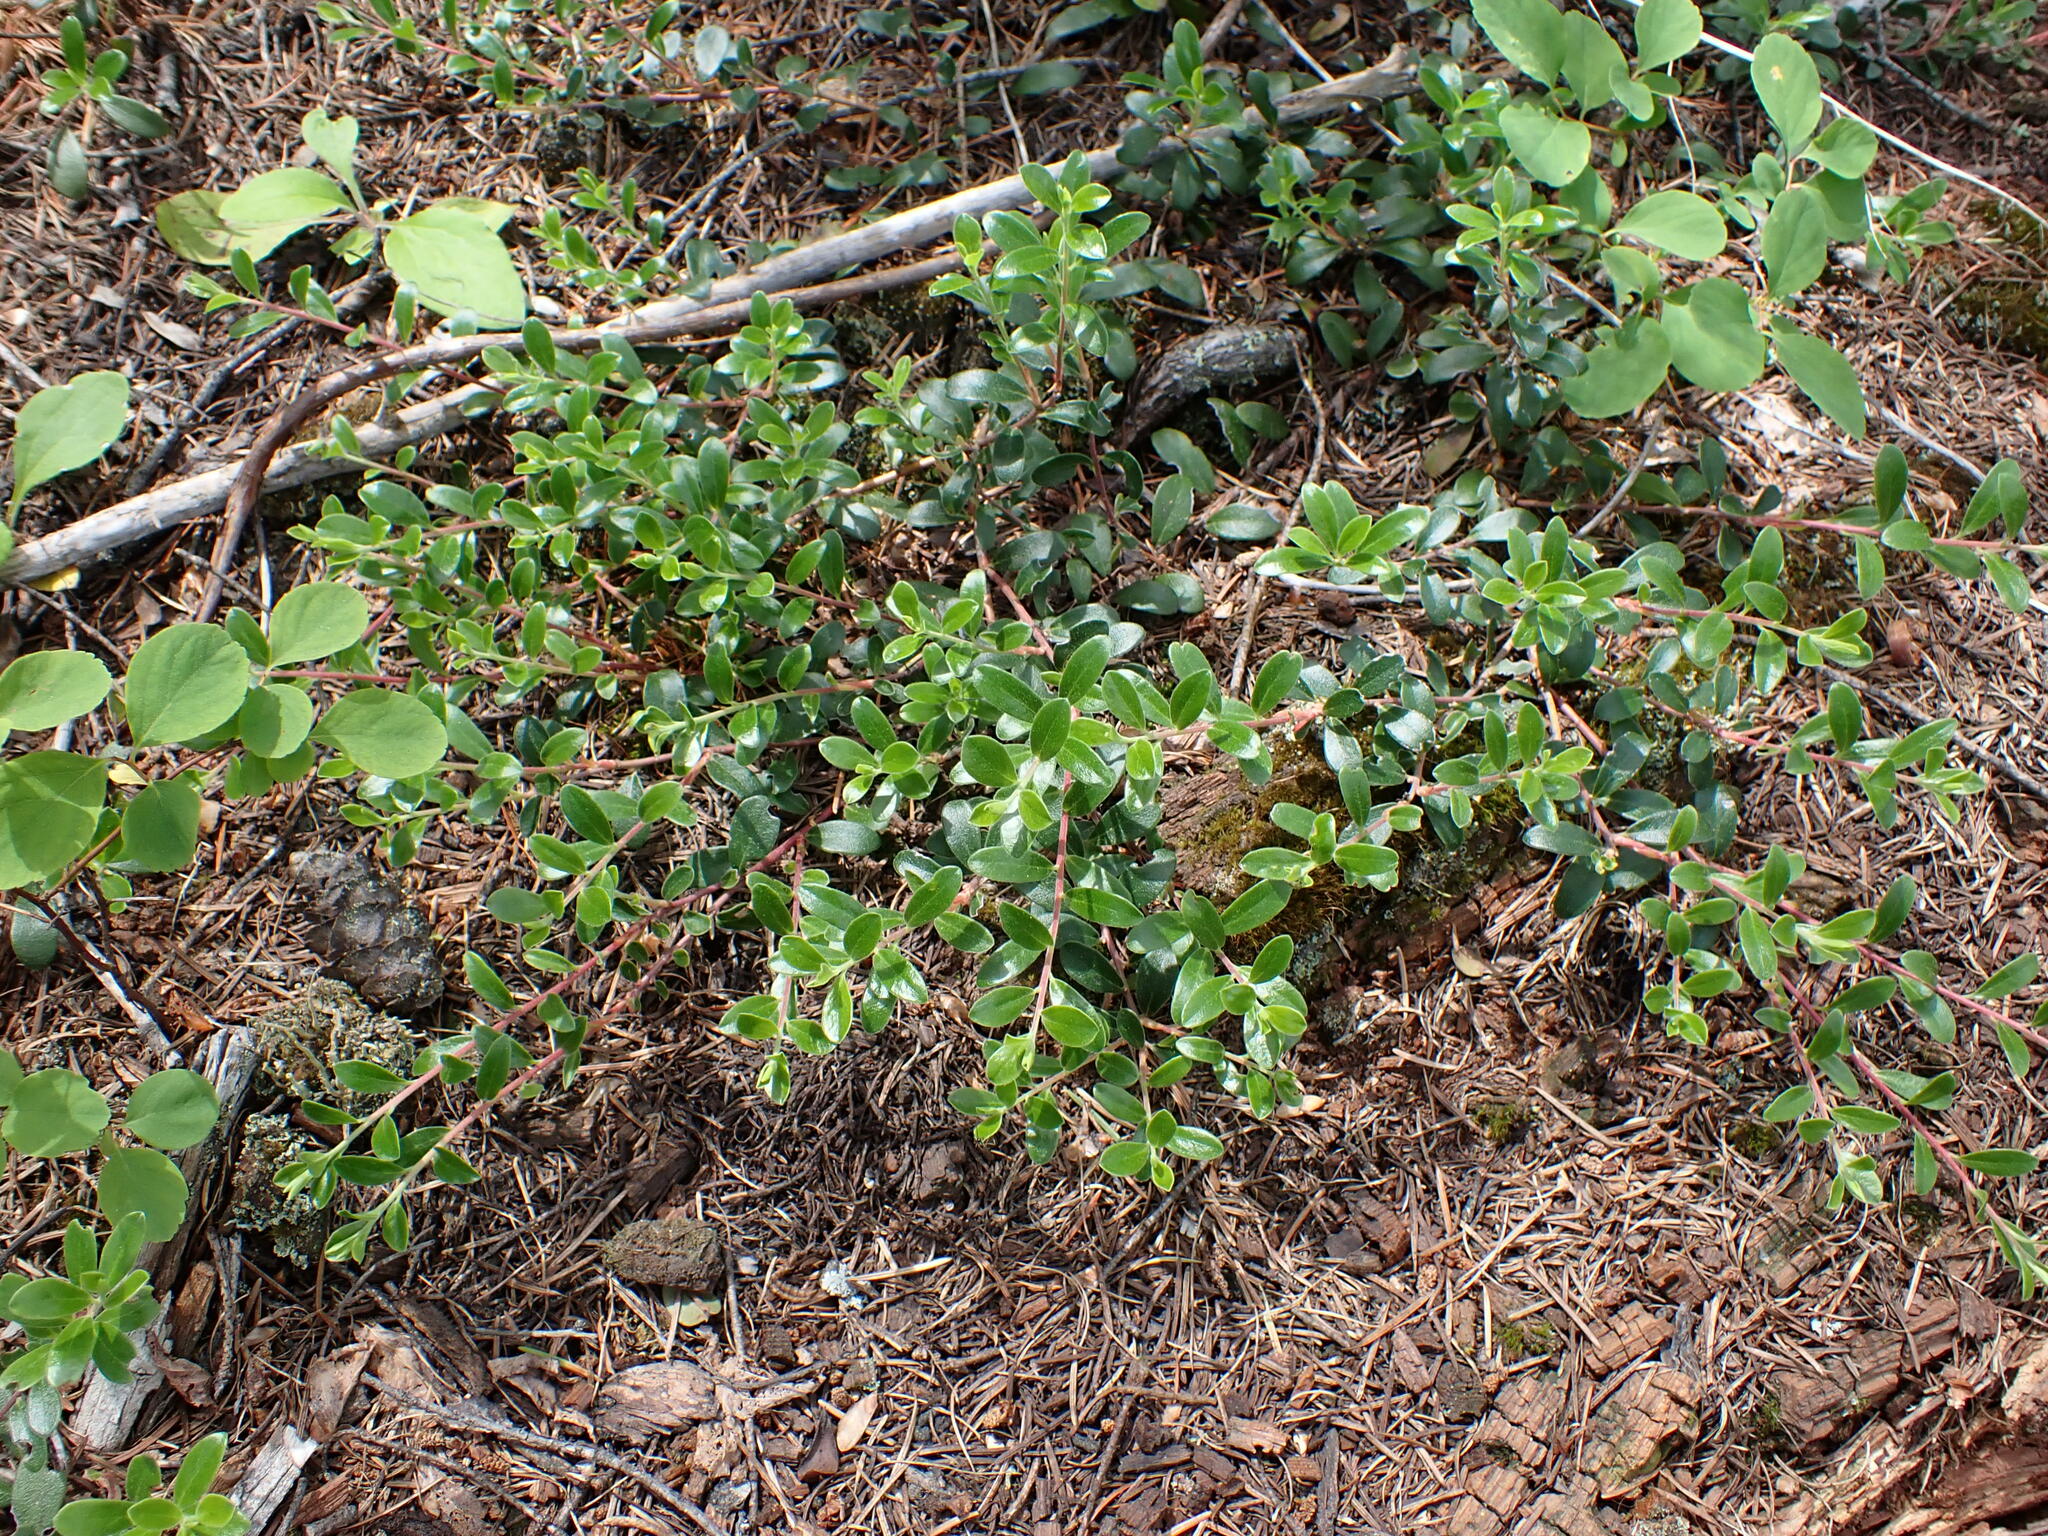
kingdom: Plantae
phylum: Tracheophyta
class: Magnoliopsida
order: Ericales
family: Ericaceae
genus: Arctostaphylos
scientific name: Arctostaphylos uva-ursi
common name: Bearberry
